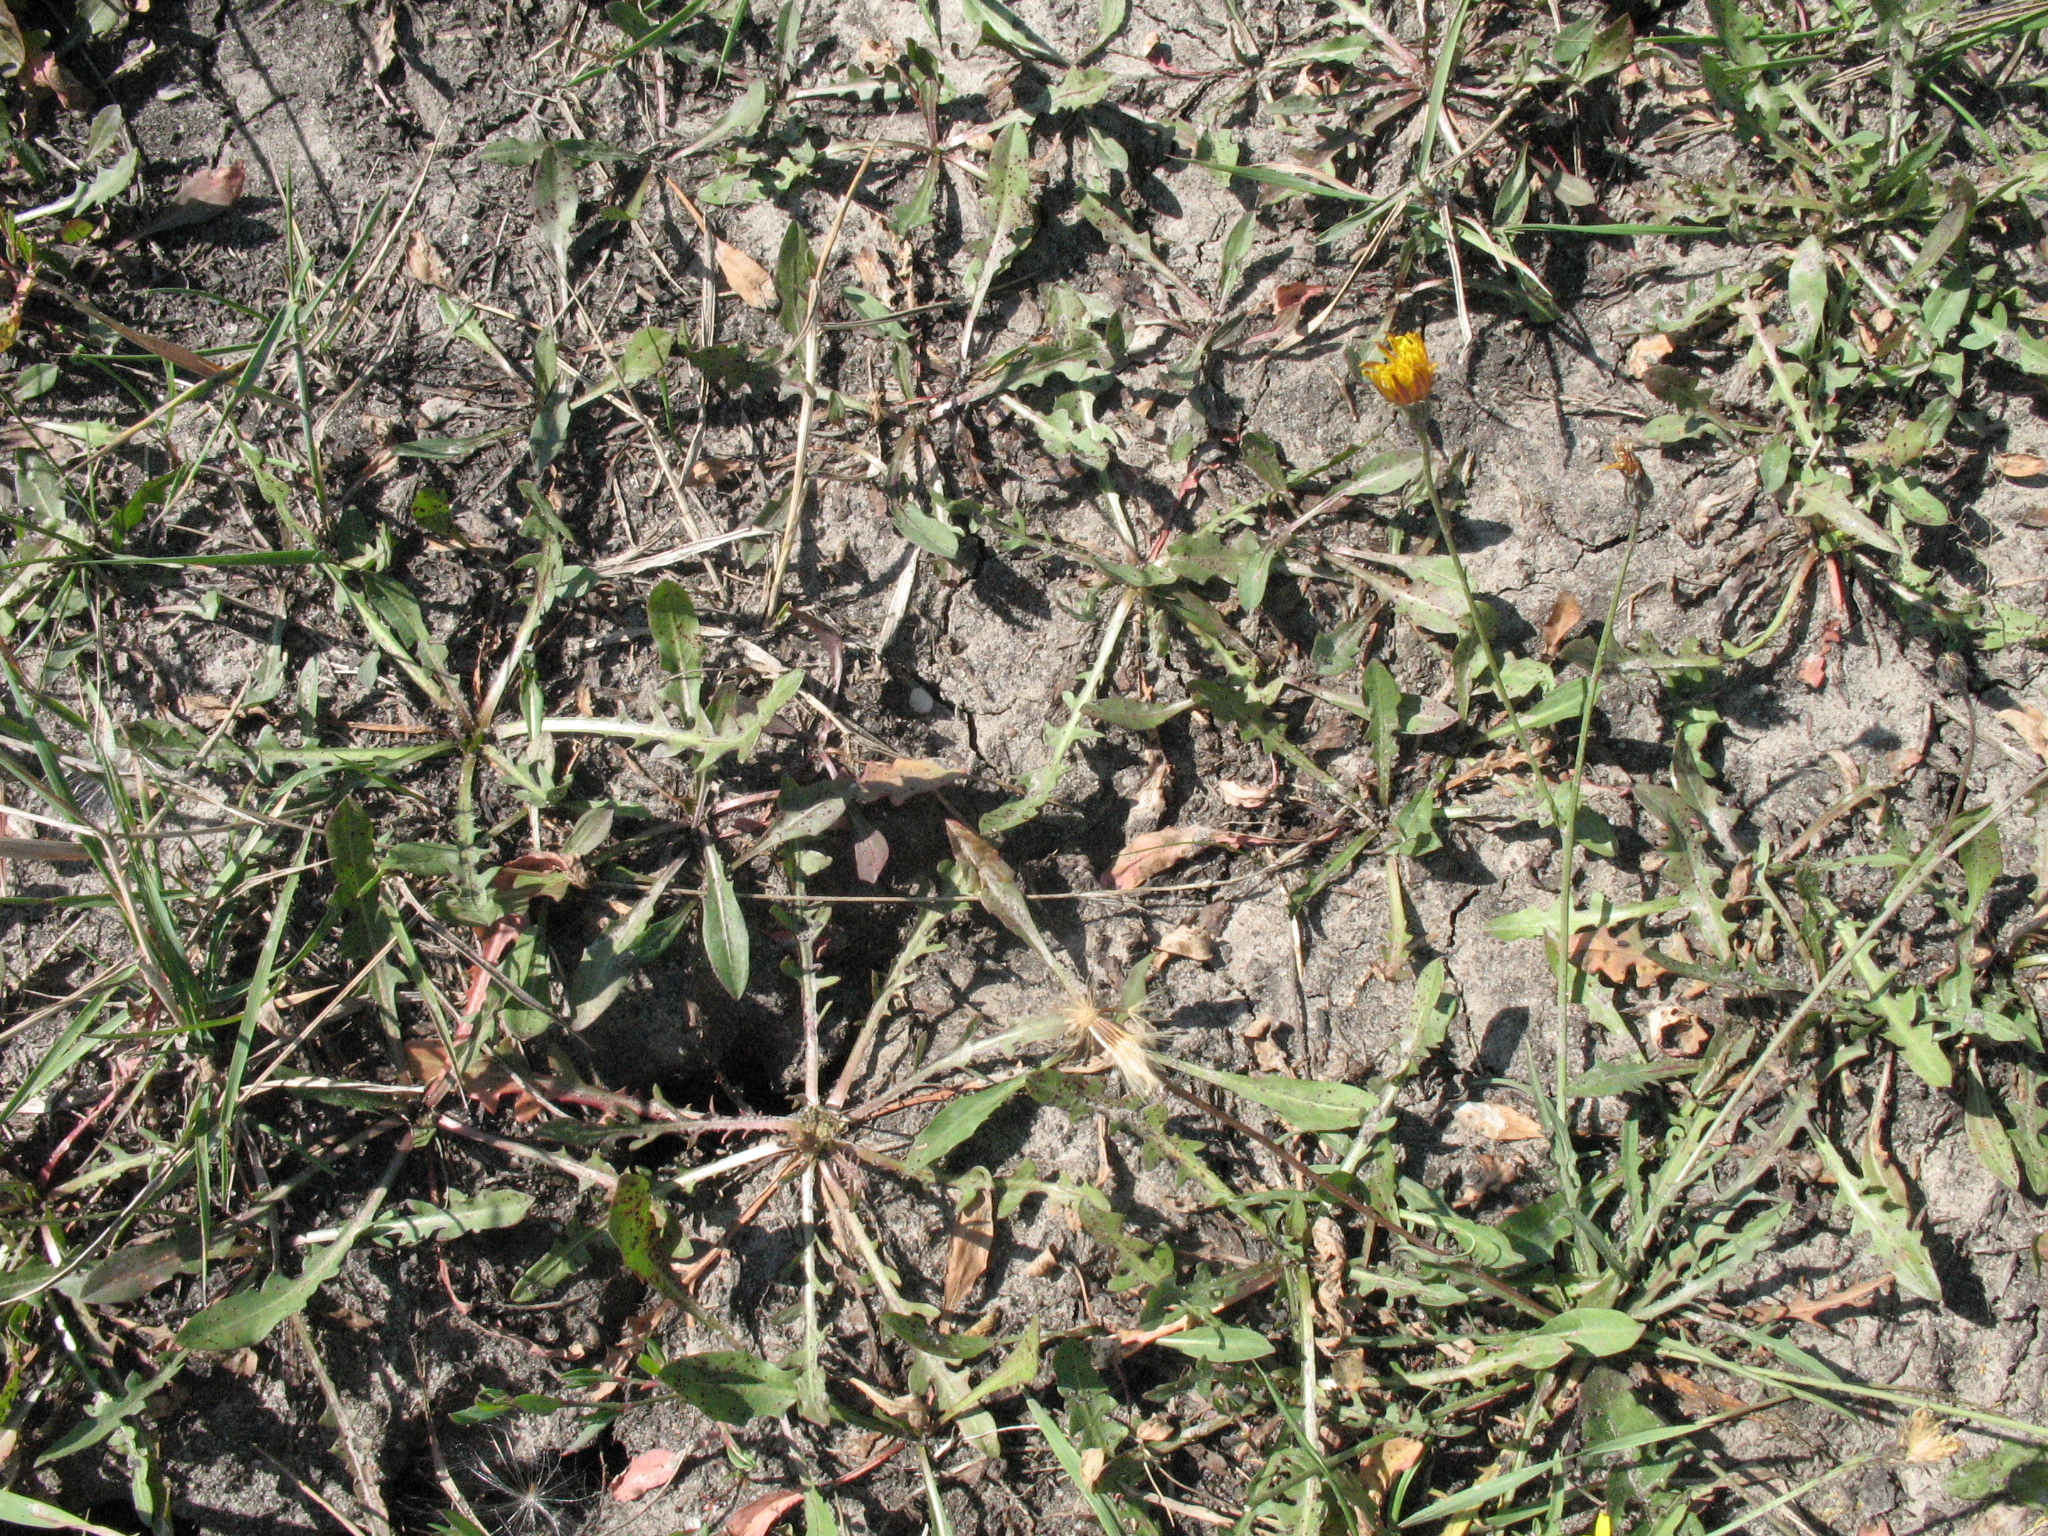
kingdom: Plantae
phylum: Tracheophyta
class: Magnoliopsida
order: Asterales
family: Asteraceae
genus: Taraxacum
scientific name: Taraxacum bessarabicum
